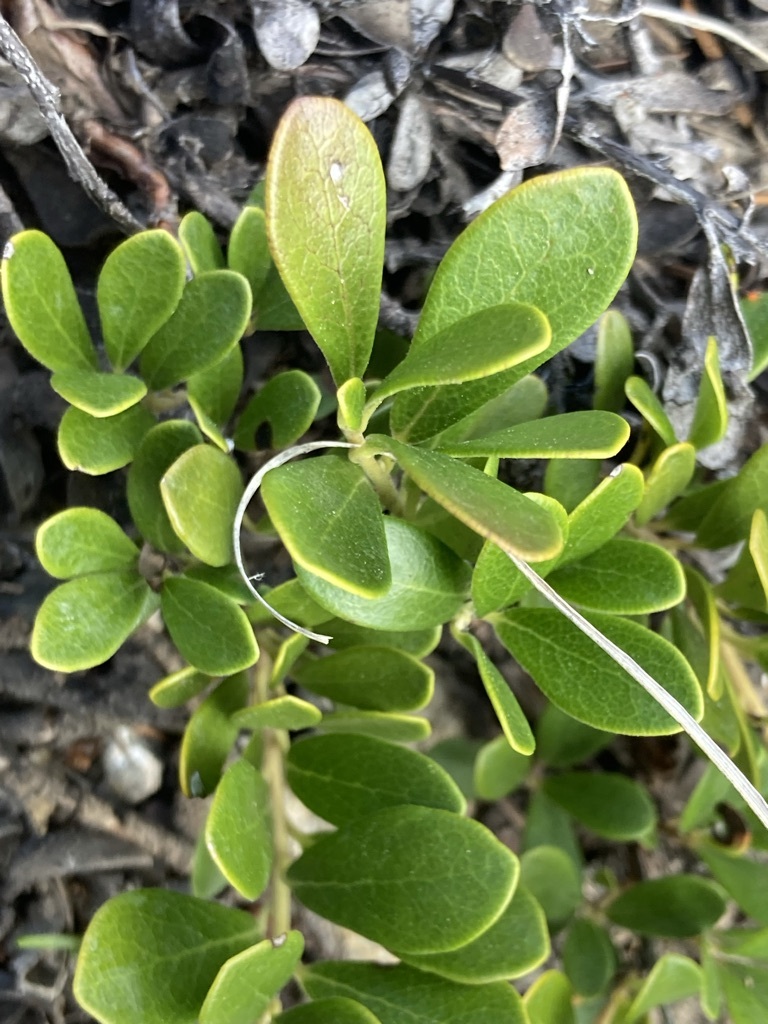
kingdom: Plantae
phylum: Tracheophyta
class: Magnoliopsida
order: Ericales
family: Ericaceae
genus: Arctostaphylos
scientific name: Arctostaphylos uva-ursi
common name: Bearberry
